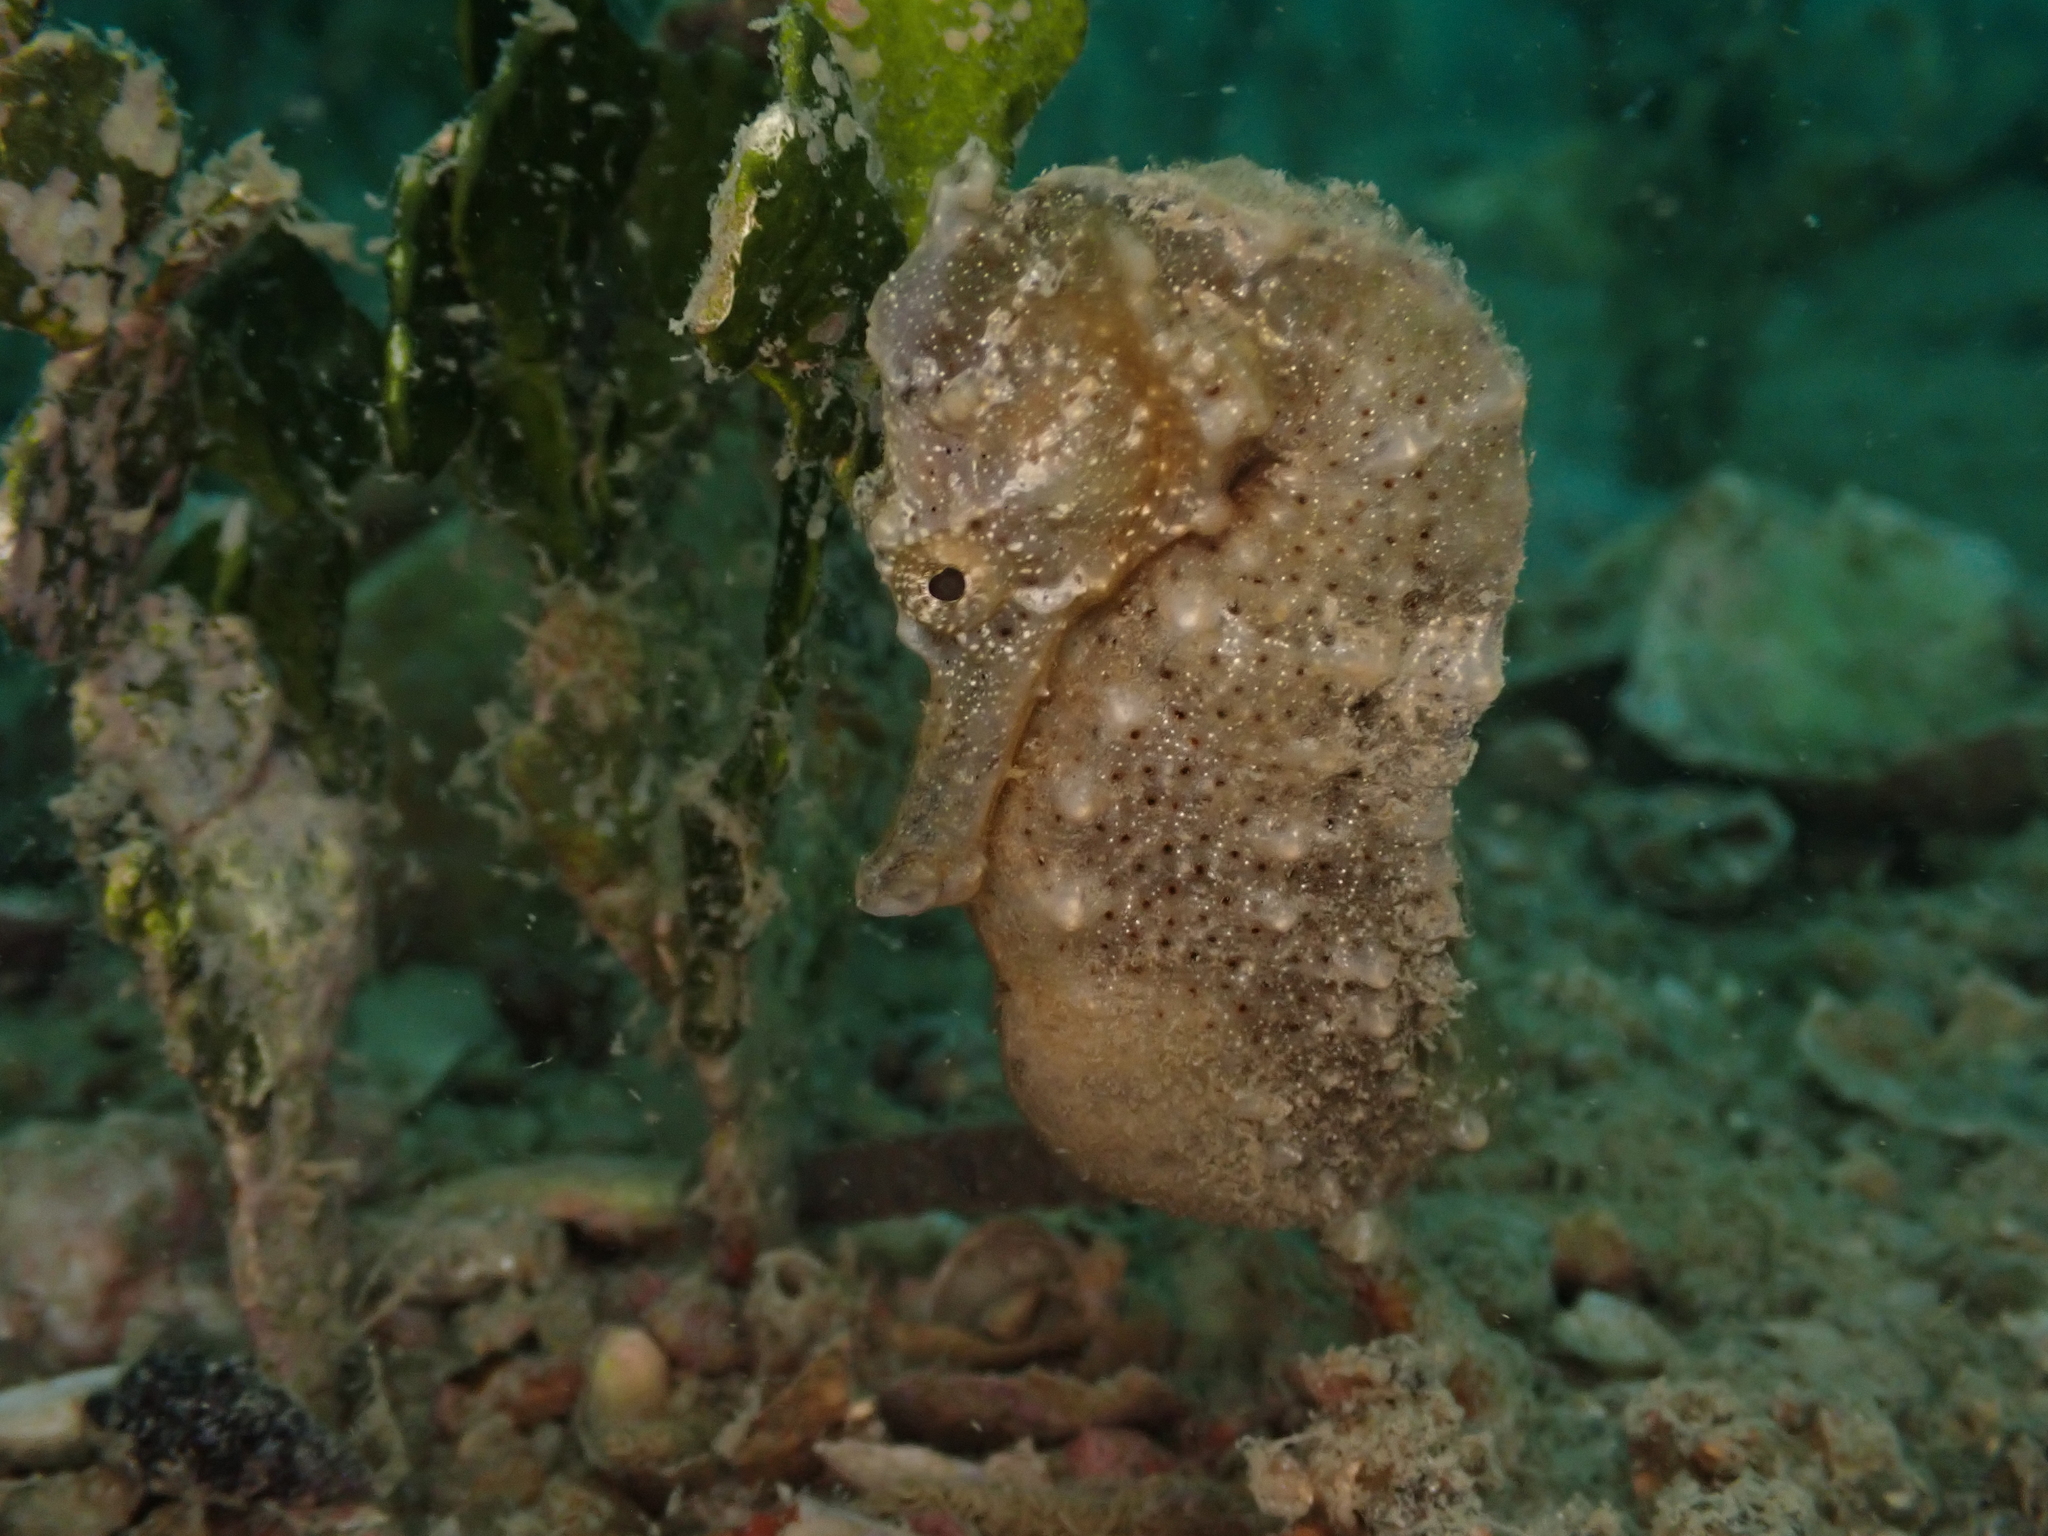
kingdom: Animalia
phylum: Chordata
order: Syngnathiformes
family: Syngnathidae
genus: Hippocampus
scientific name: Hippocampus kuda
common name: Spotted seahorse
